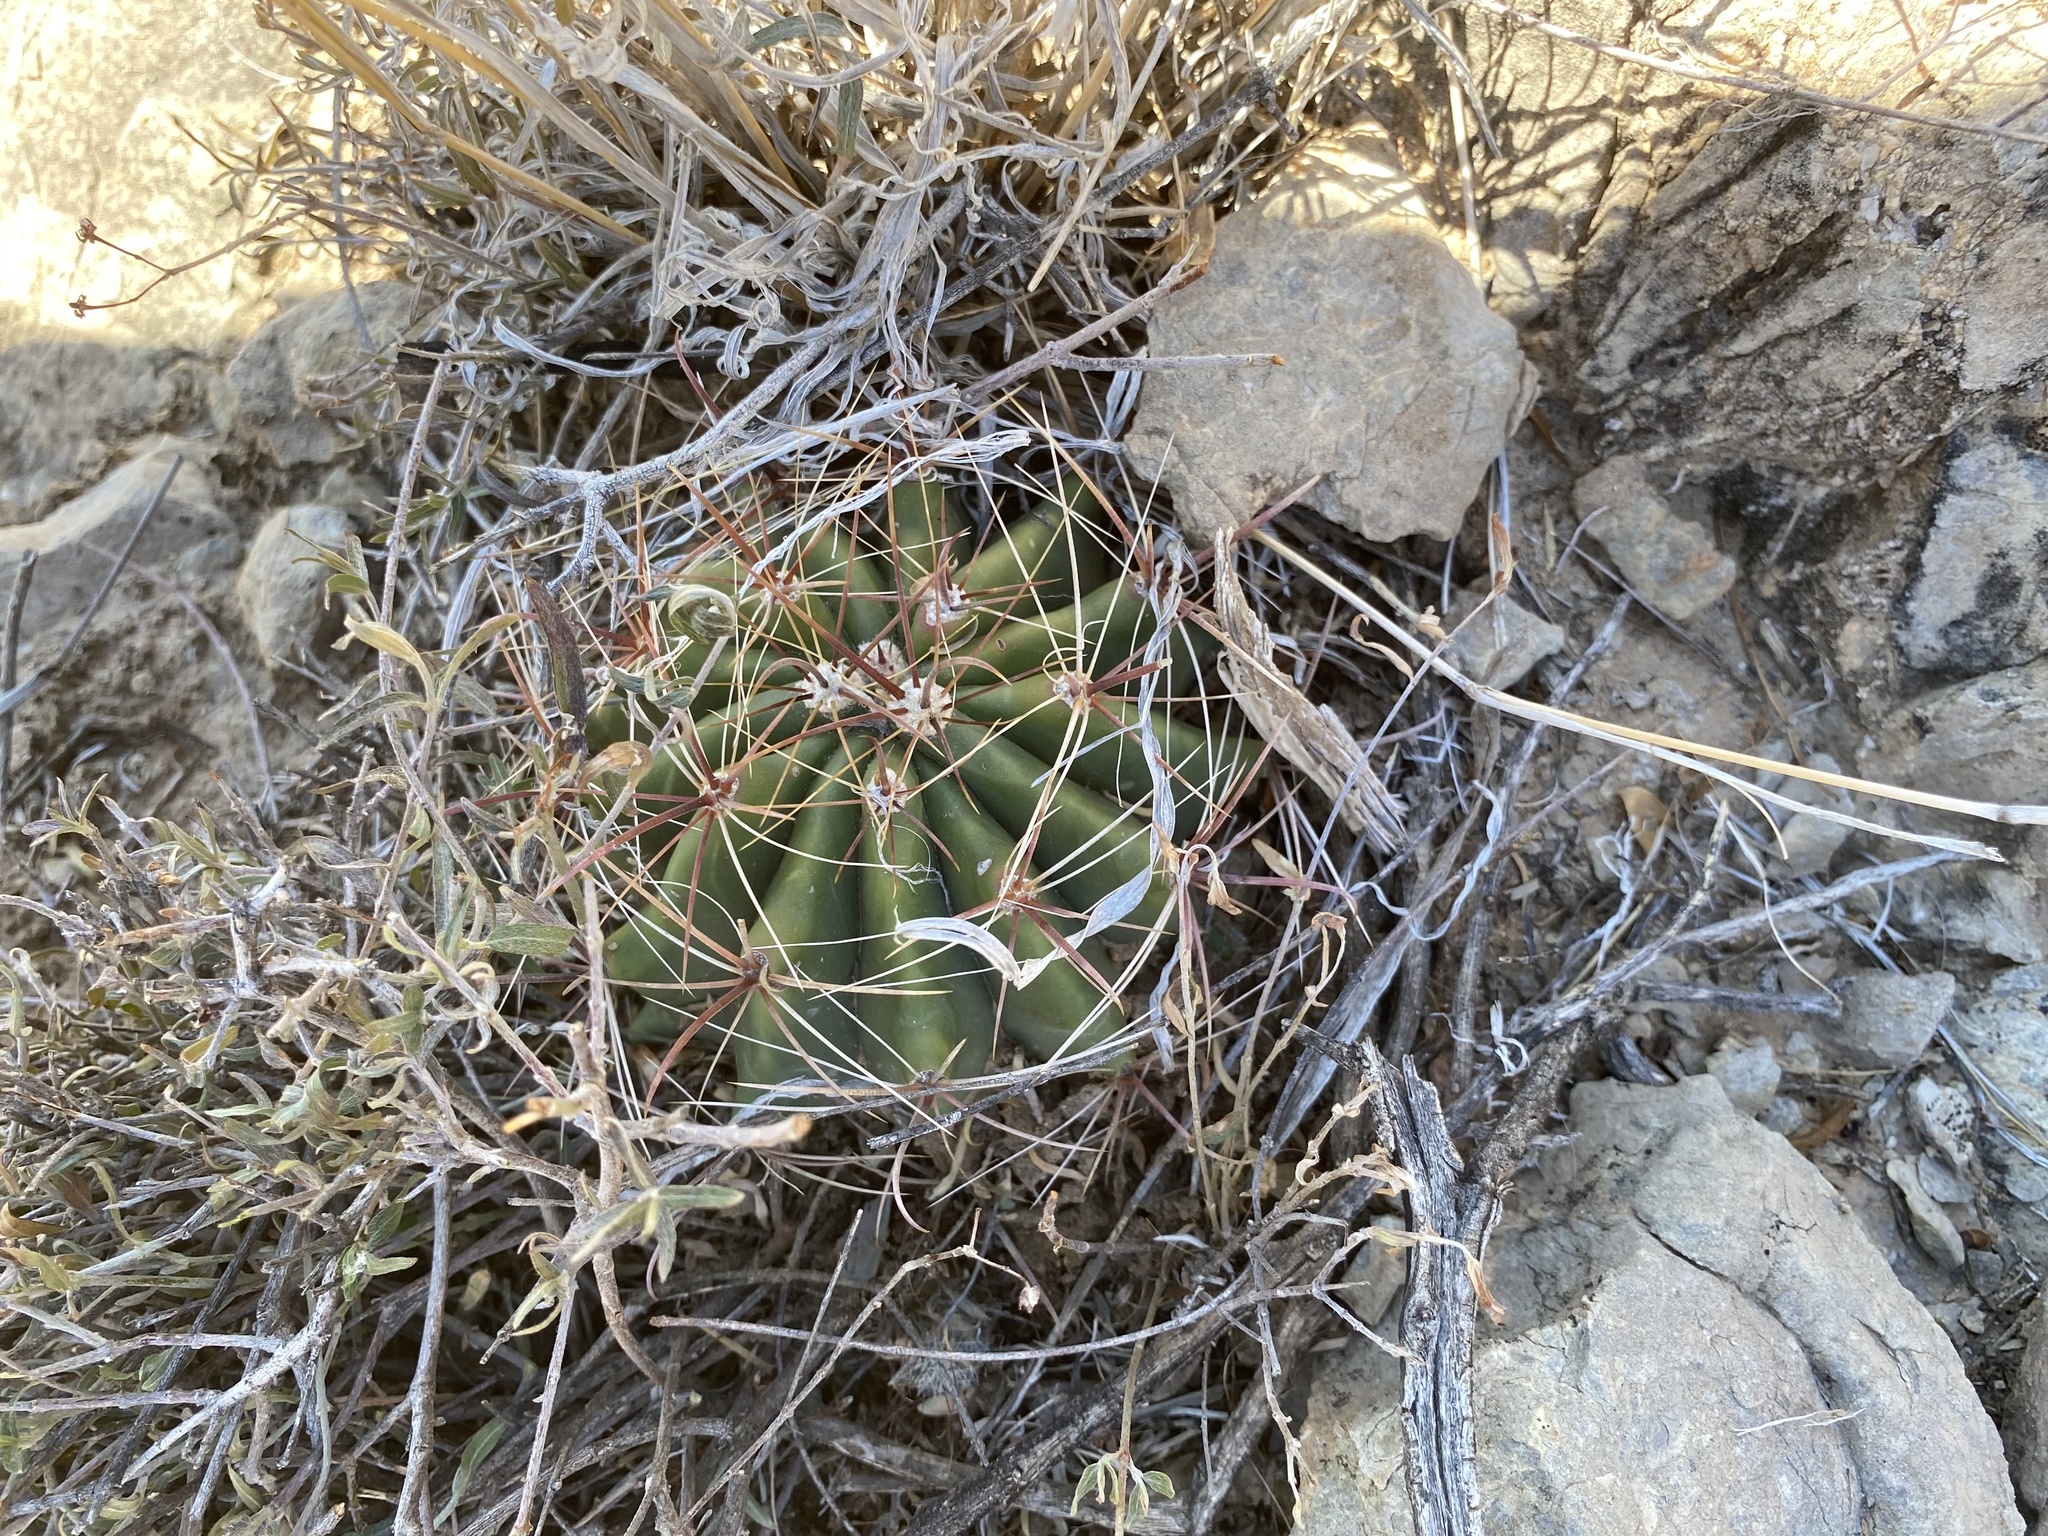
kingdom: Plantae
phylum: Tracheophyta
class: Magnoliopsida
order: Caryophyllales
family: Cactaceae
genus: Ferocactus
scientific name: Ferocactus wislizeni
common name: Candy barrel cactus
